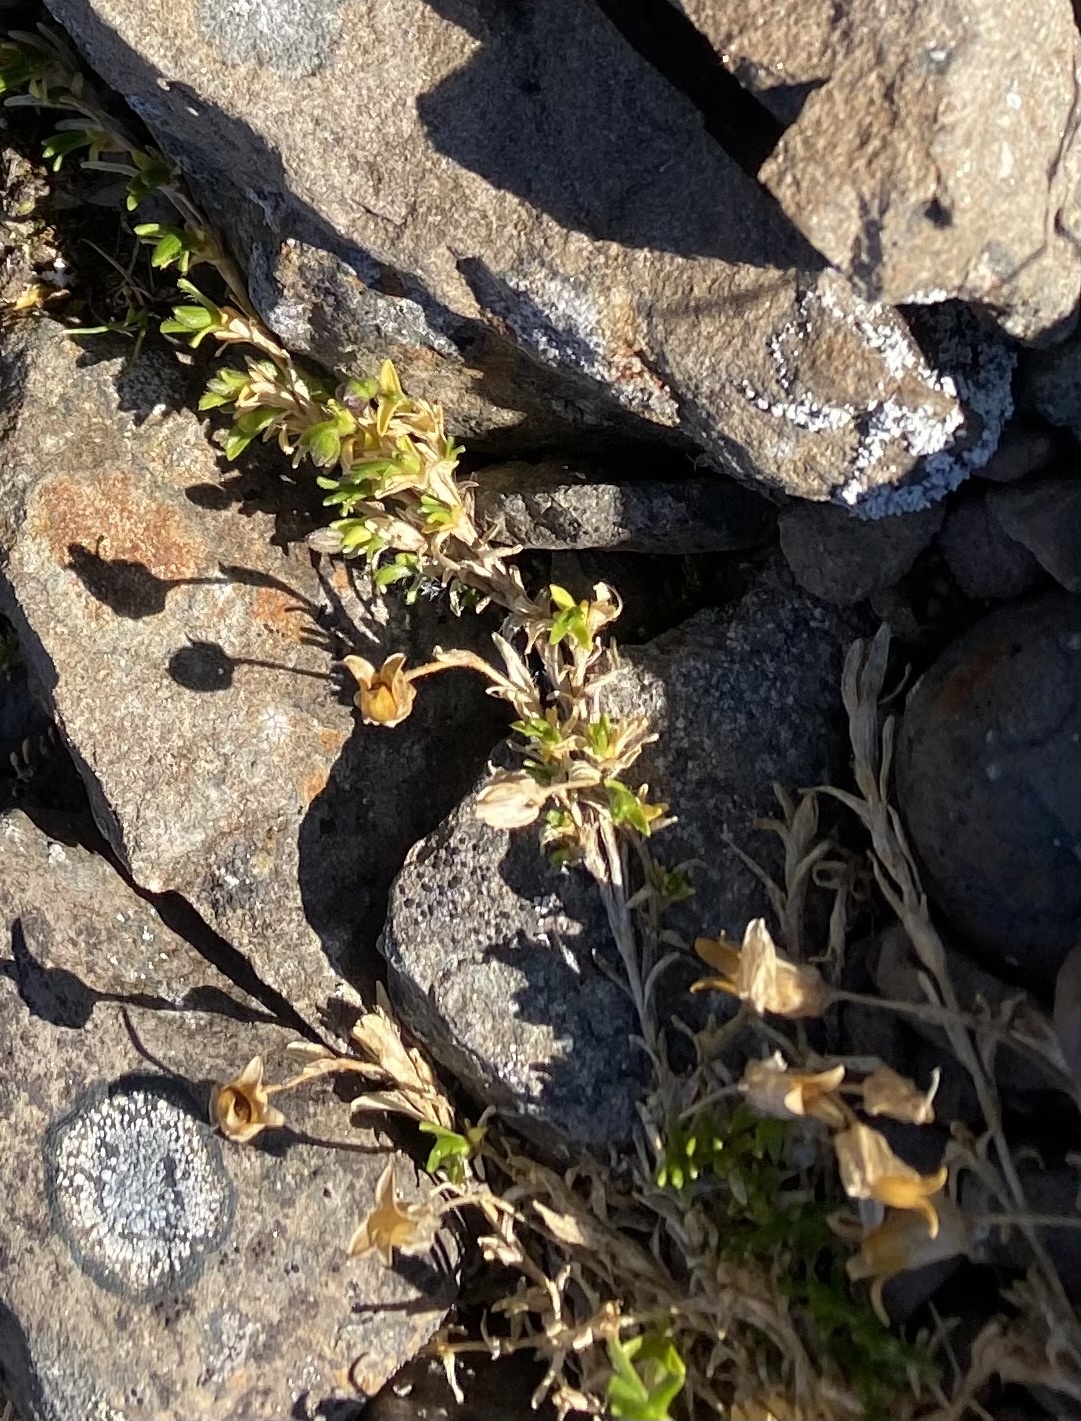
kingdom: Plantae
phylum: Tracheophyta
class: Magnoliopsida
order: Caryophyllales
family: Caryophyllaceae
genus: Pseudocherleria
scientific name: Pseudocherleria macrocarpa
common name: Large-fruit sandwort
